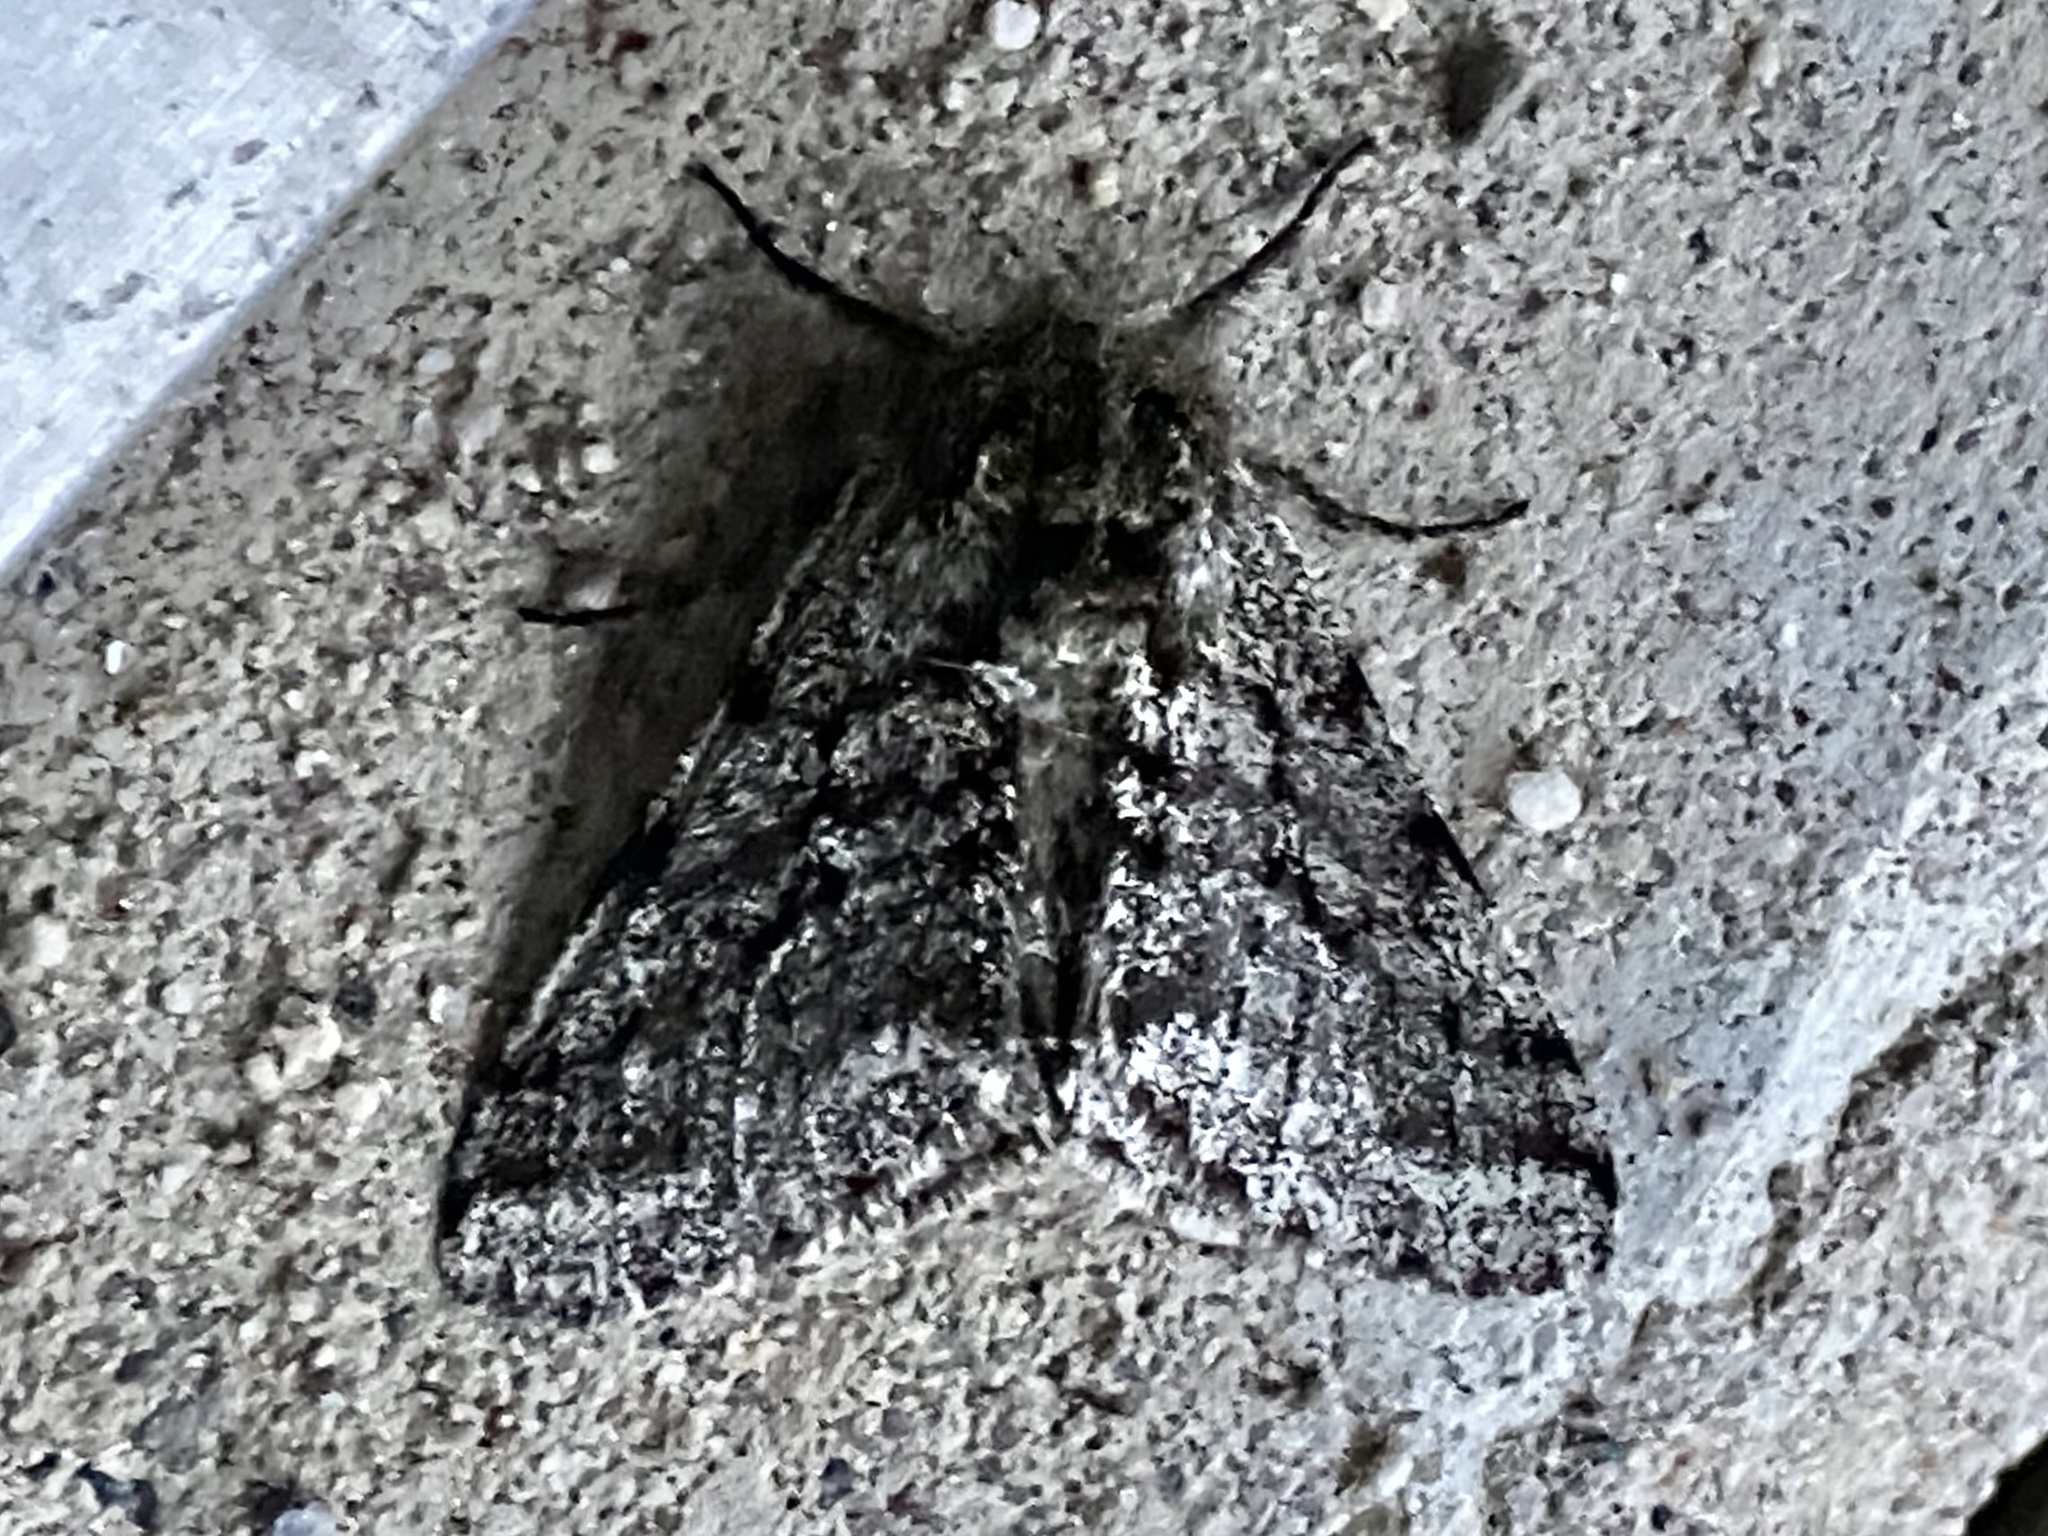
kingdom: Animalia
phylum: Arthropoda
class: Insecta
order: Lepidoptera
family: Geometridae
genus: Lycia
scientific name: Lycia ursaria
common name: Stout spanworm
